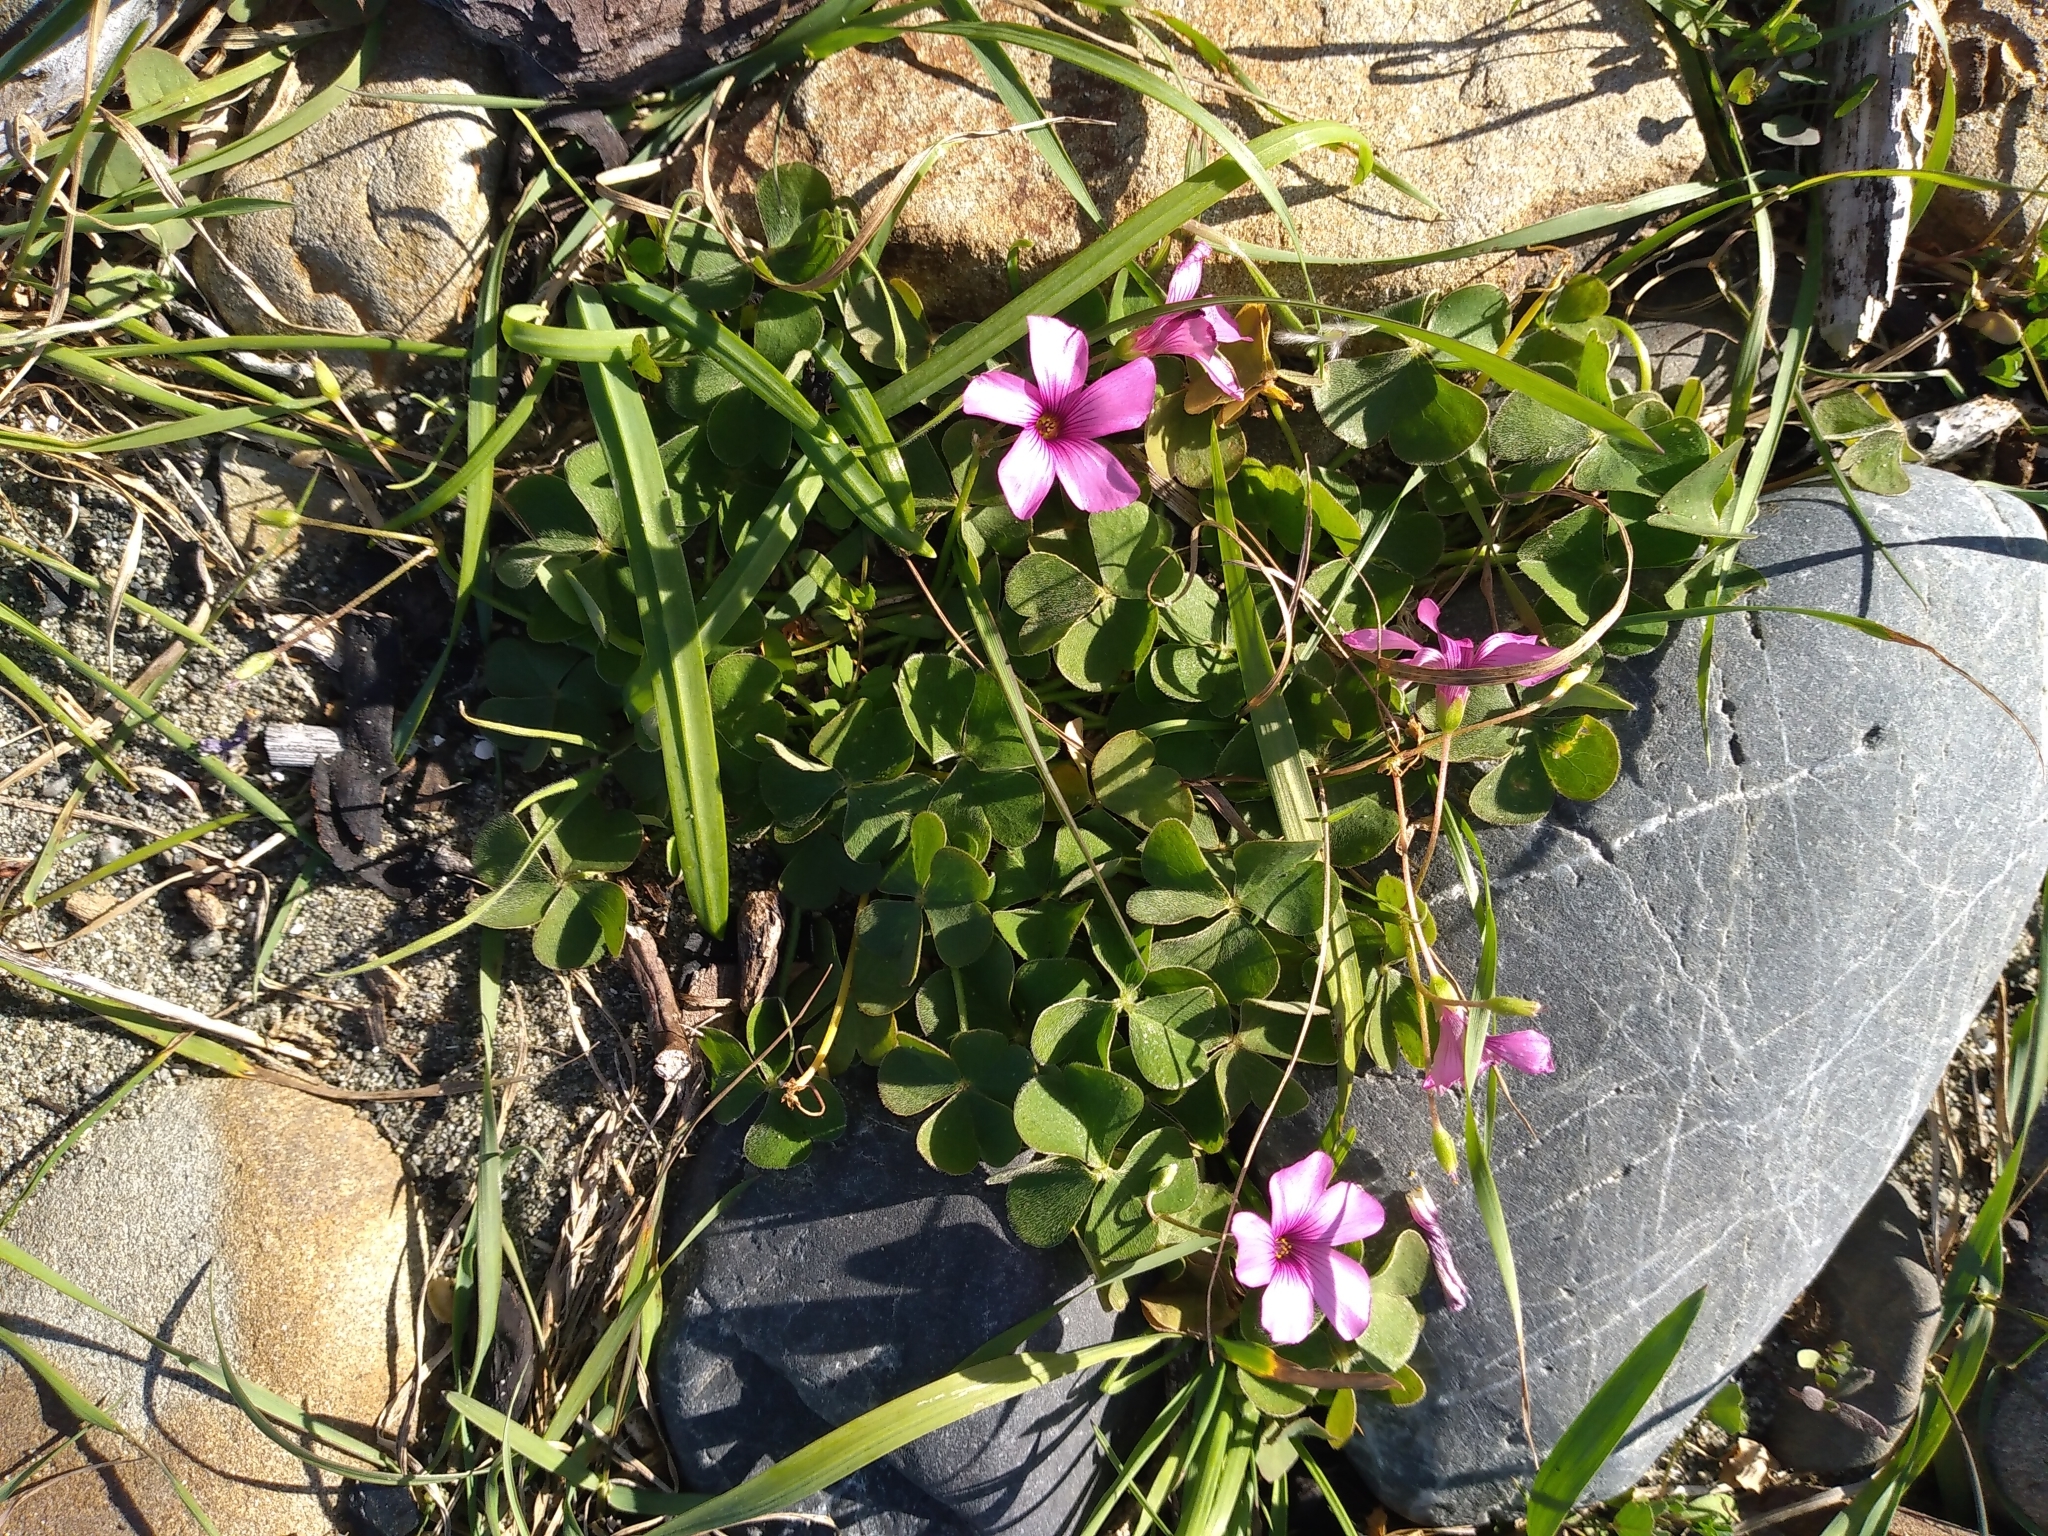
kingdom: Plantae
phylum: Tracheophyta
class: Magnoliopsida
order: Oxalidales
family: Oxalidaceae
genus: Oxalis
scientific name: Oxalis articulata
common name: Pink-sorrel
